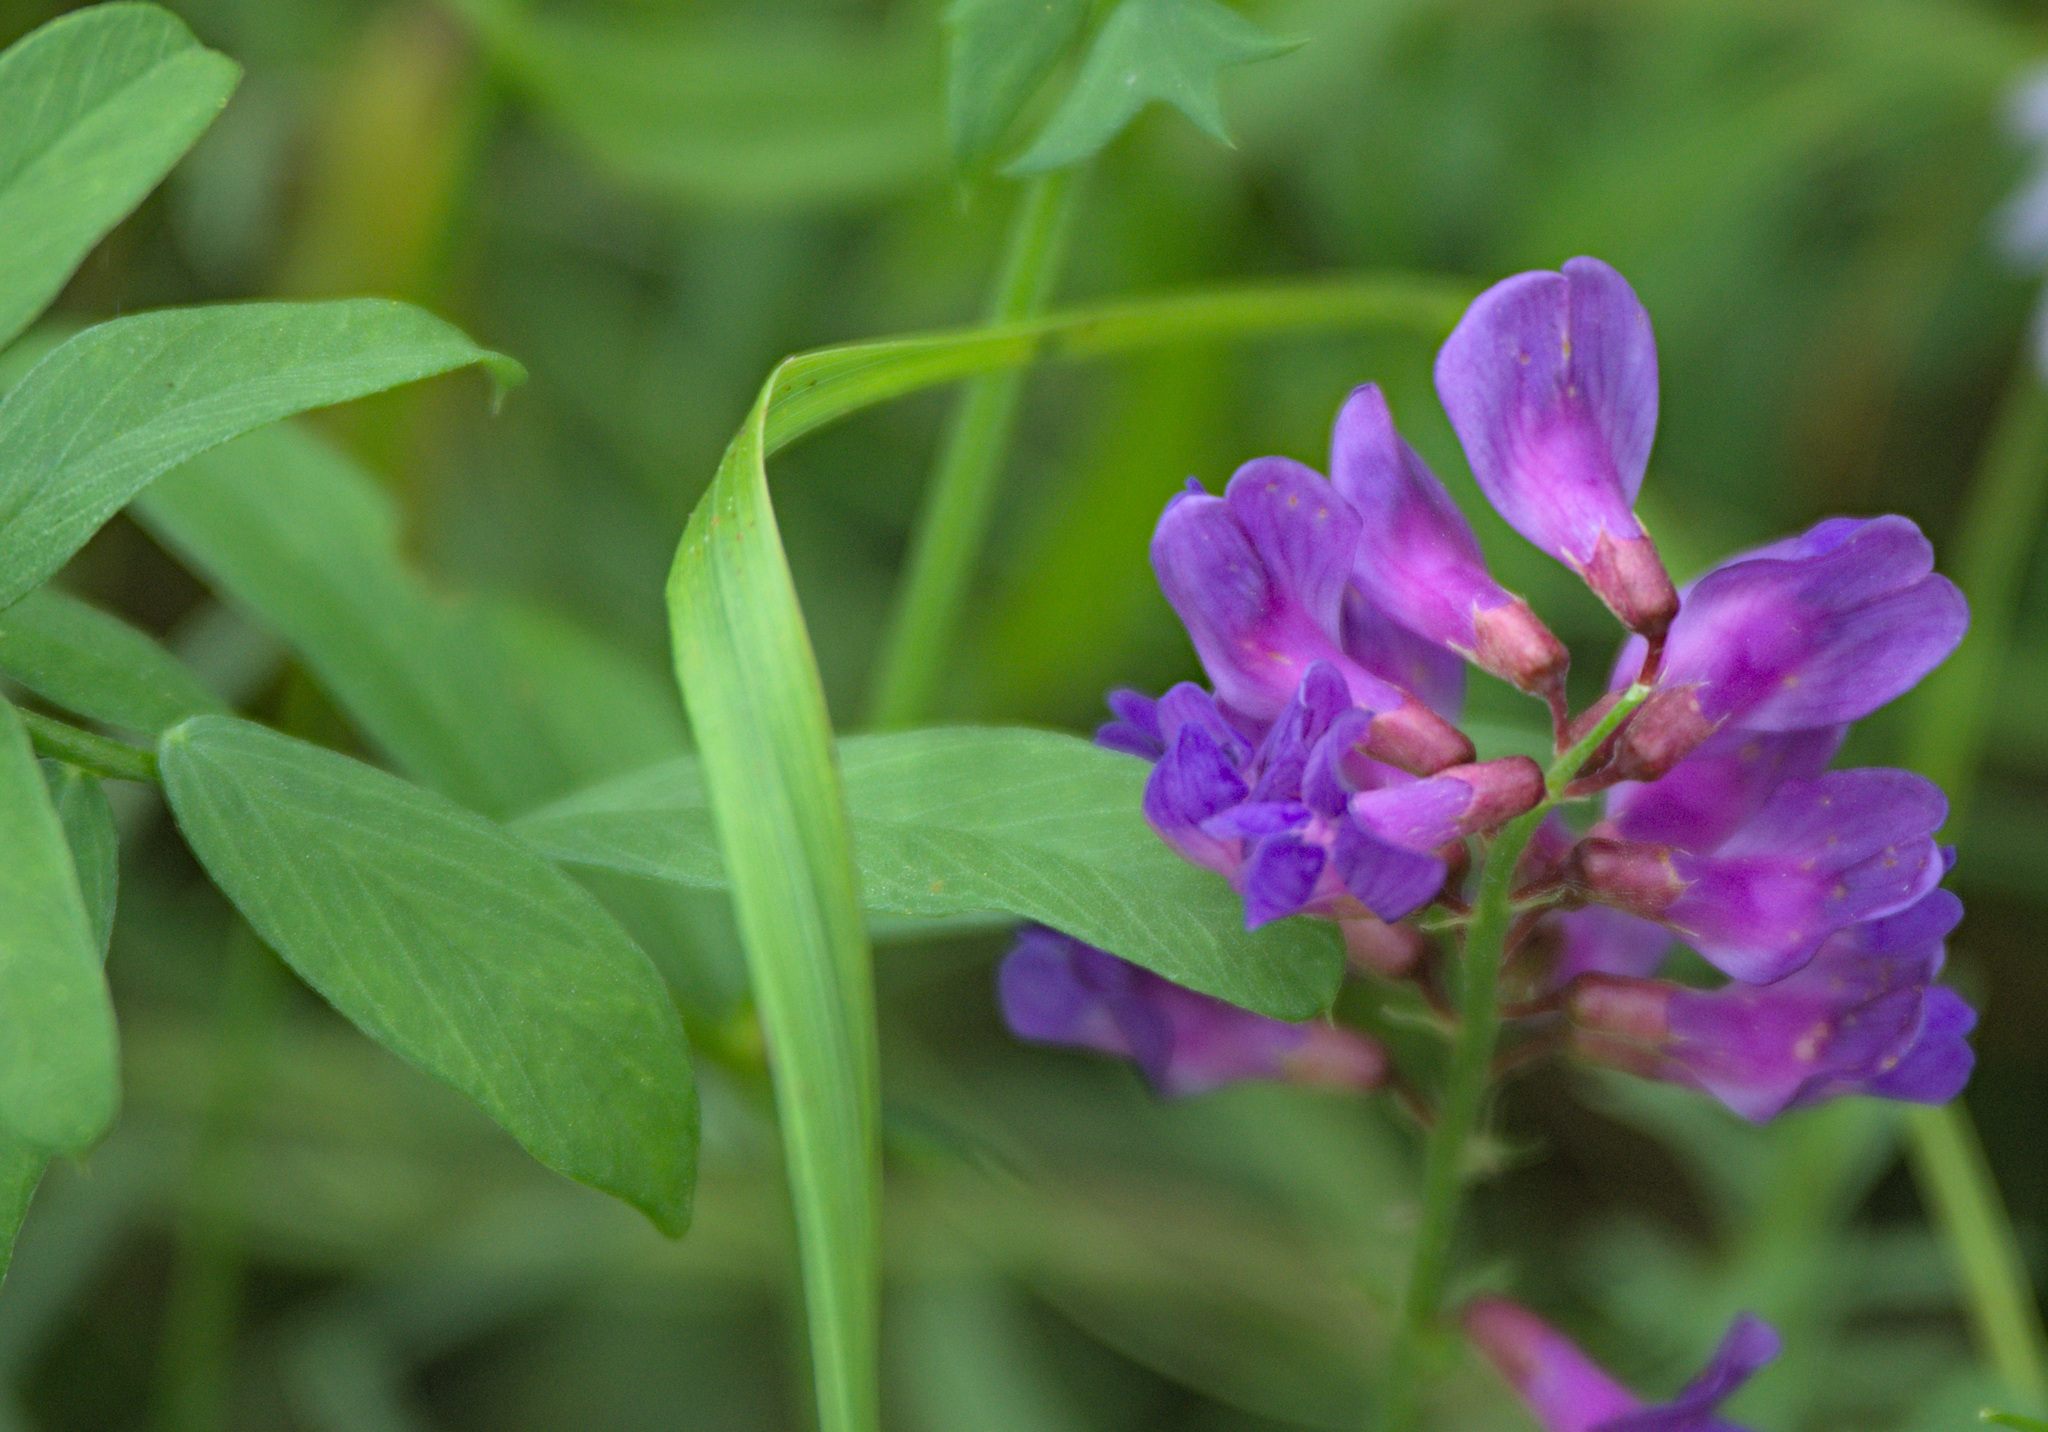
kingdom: Plantae
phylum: Tracheophyta
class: Magnoliopsida
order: Fabales
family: Fabaceae
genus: Vicia
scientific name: Vicia amoena
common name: Cheder ebs
